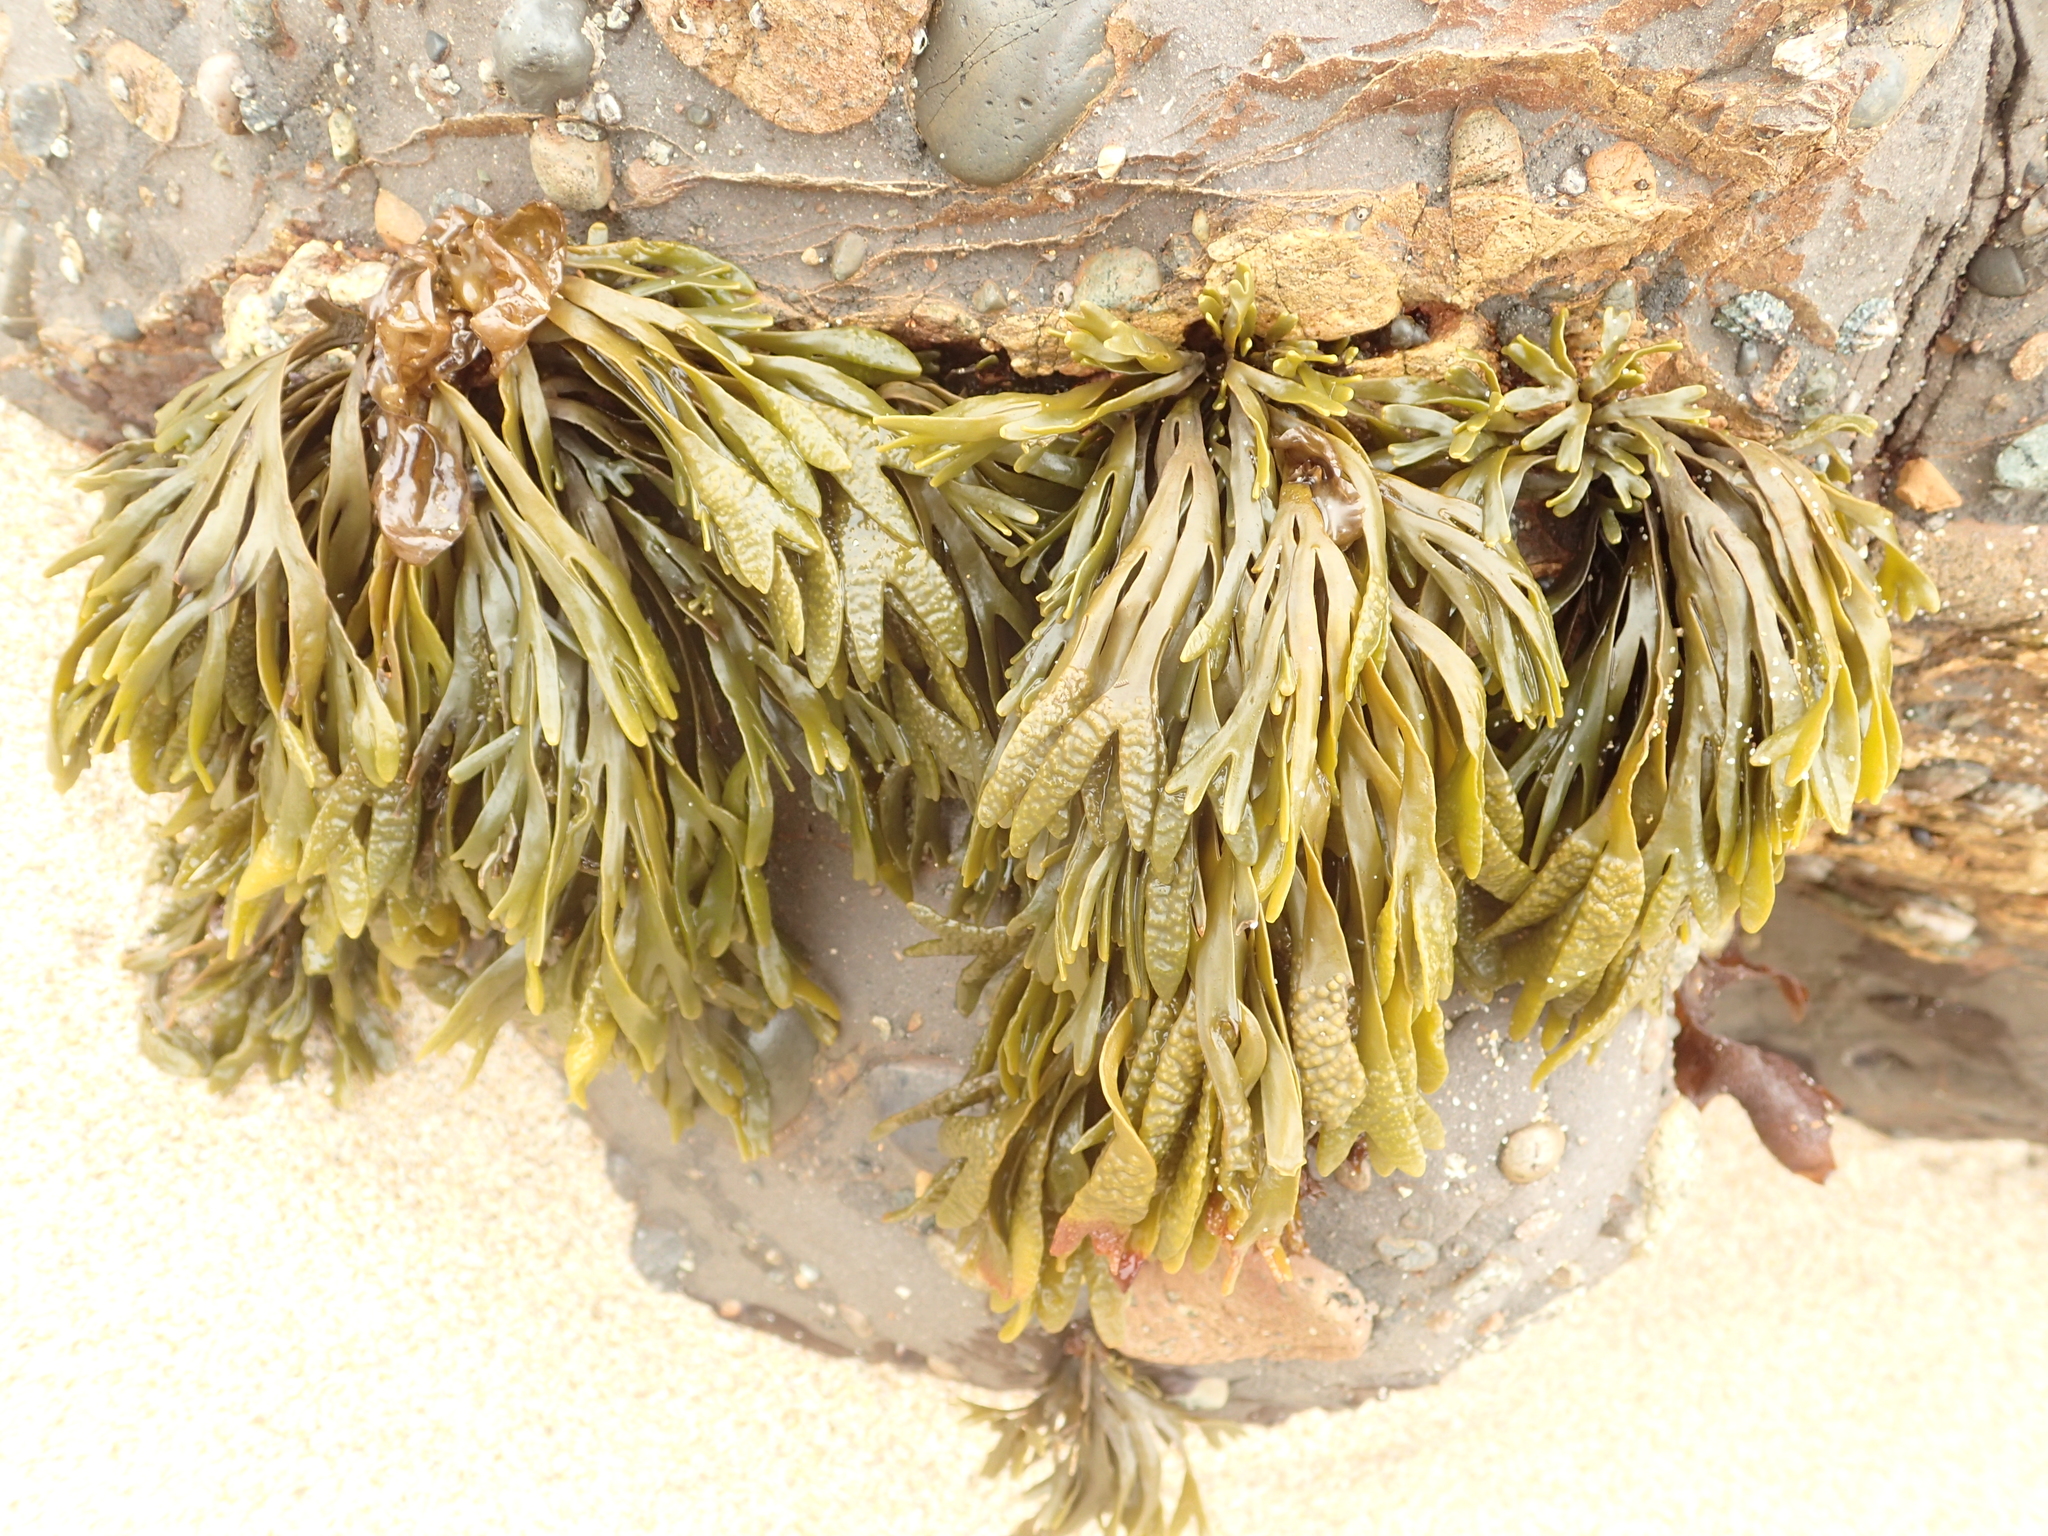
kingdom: Chromista
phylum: Ochrophyta
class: Phaeophyceae
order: Fucales
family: Fucaceae
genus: Pelvetiopsis
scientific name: Pelvetiopsis limitata
